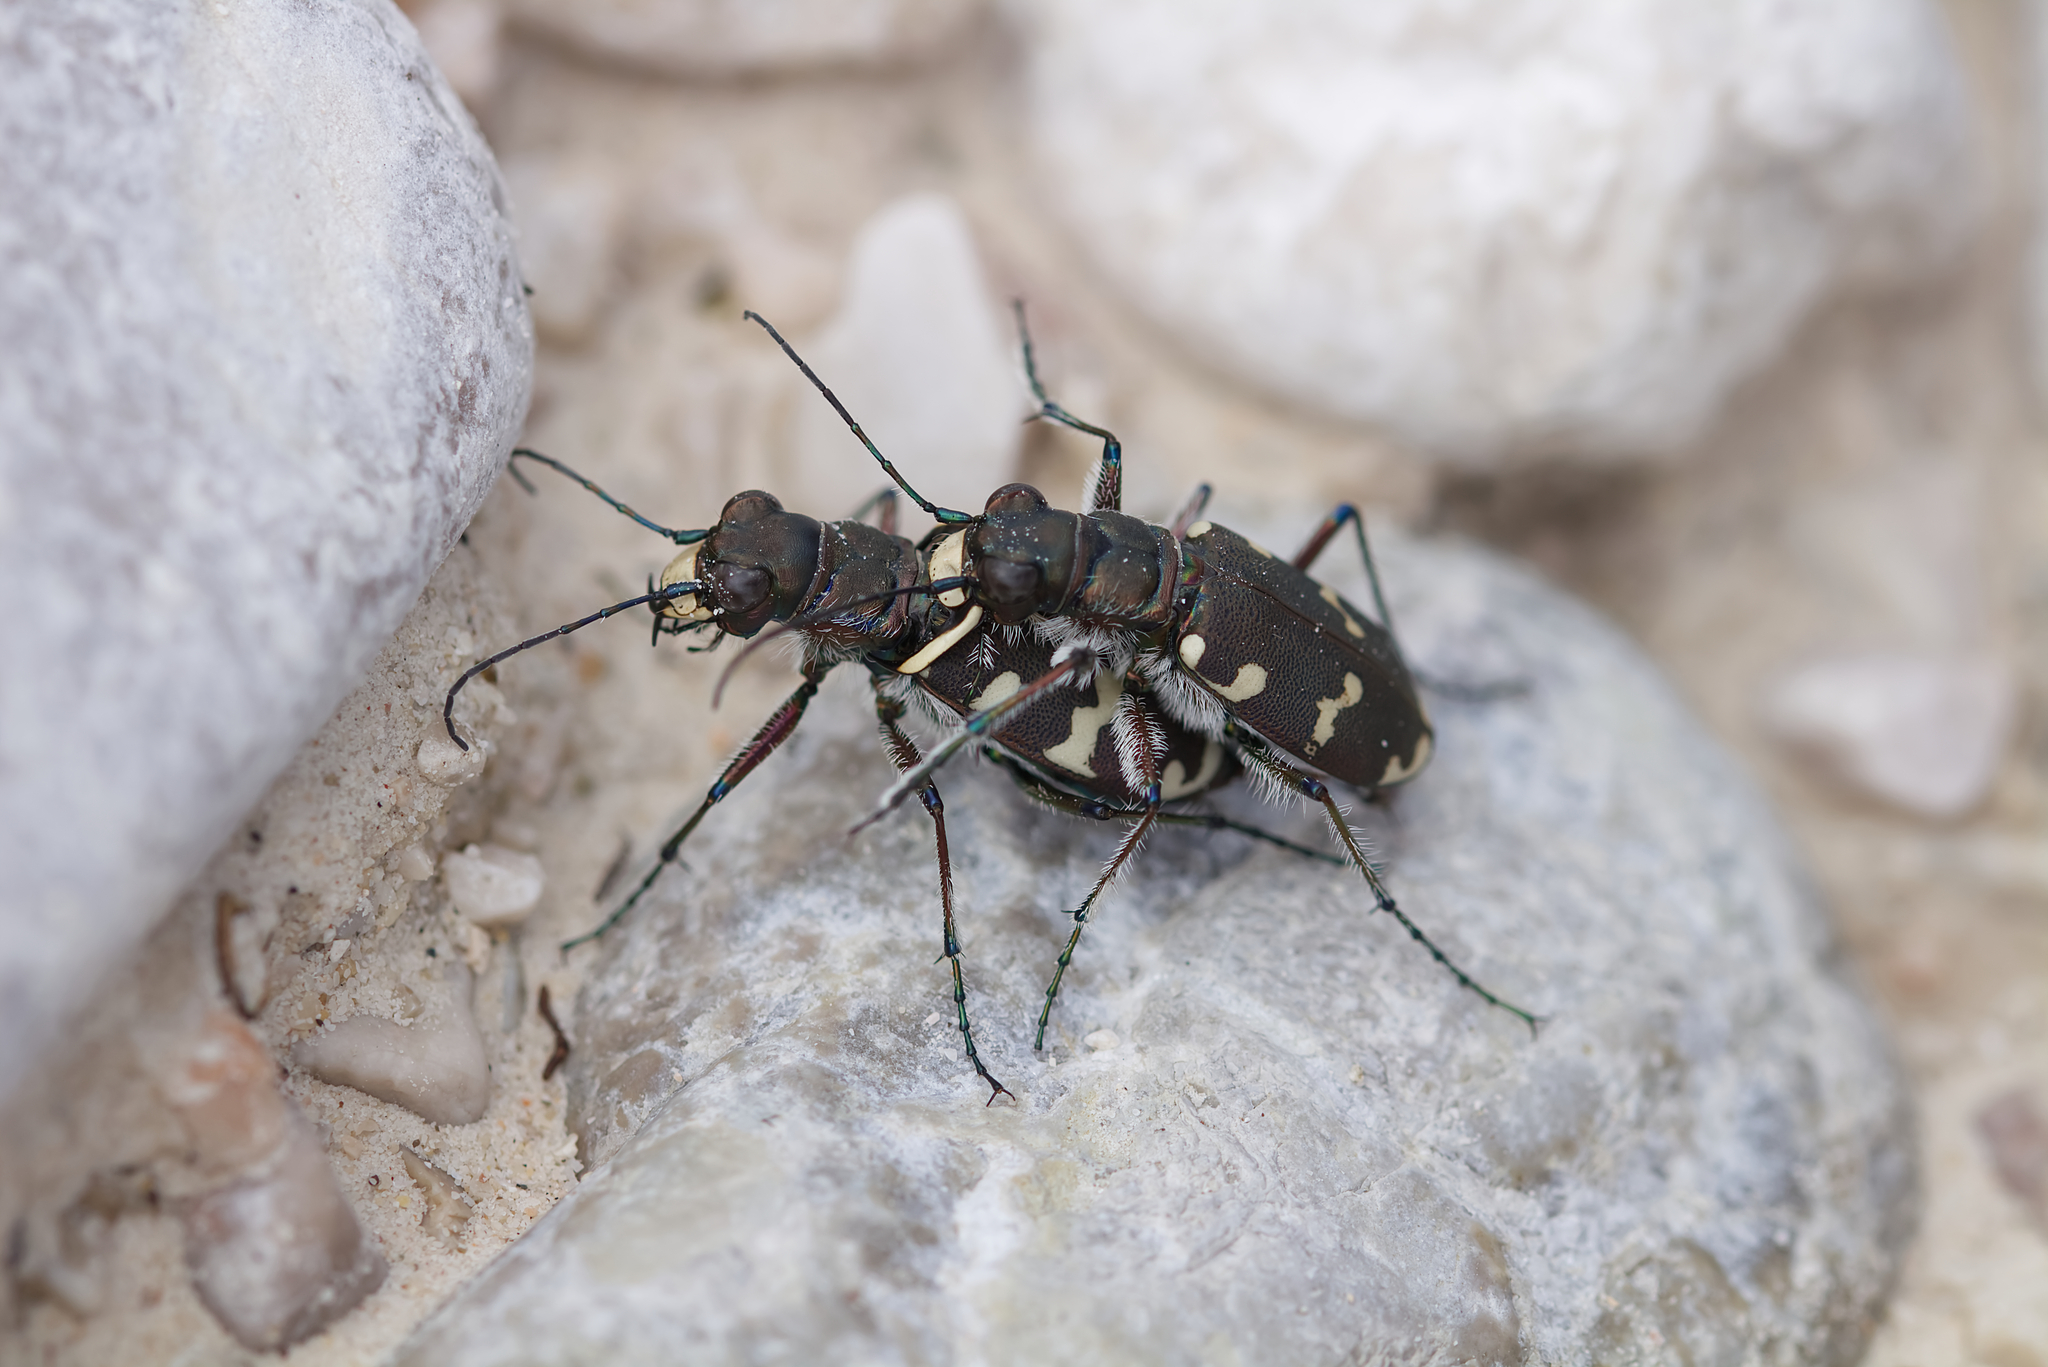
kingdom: Animalia
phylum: Arthropoda
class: Insecta
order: Coleoptera
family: Carabidae
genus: Cicindela
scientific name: Cicindela hybrida
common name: Northern dune tiger beetle
